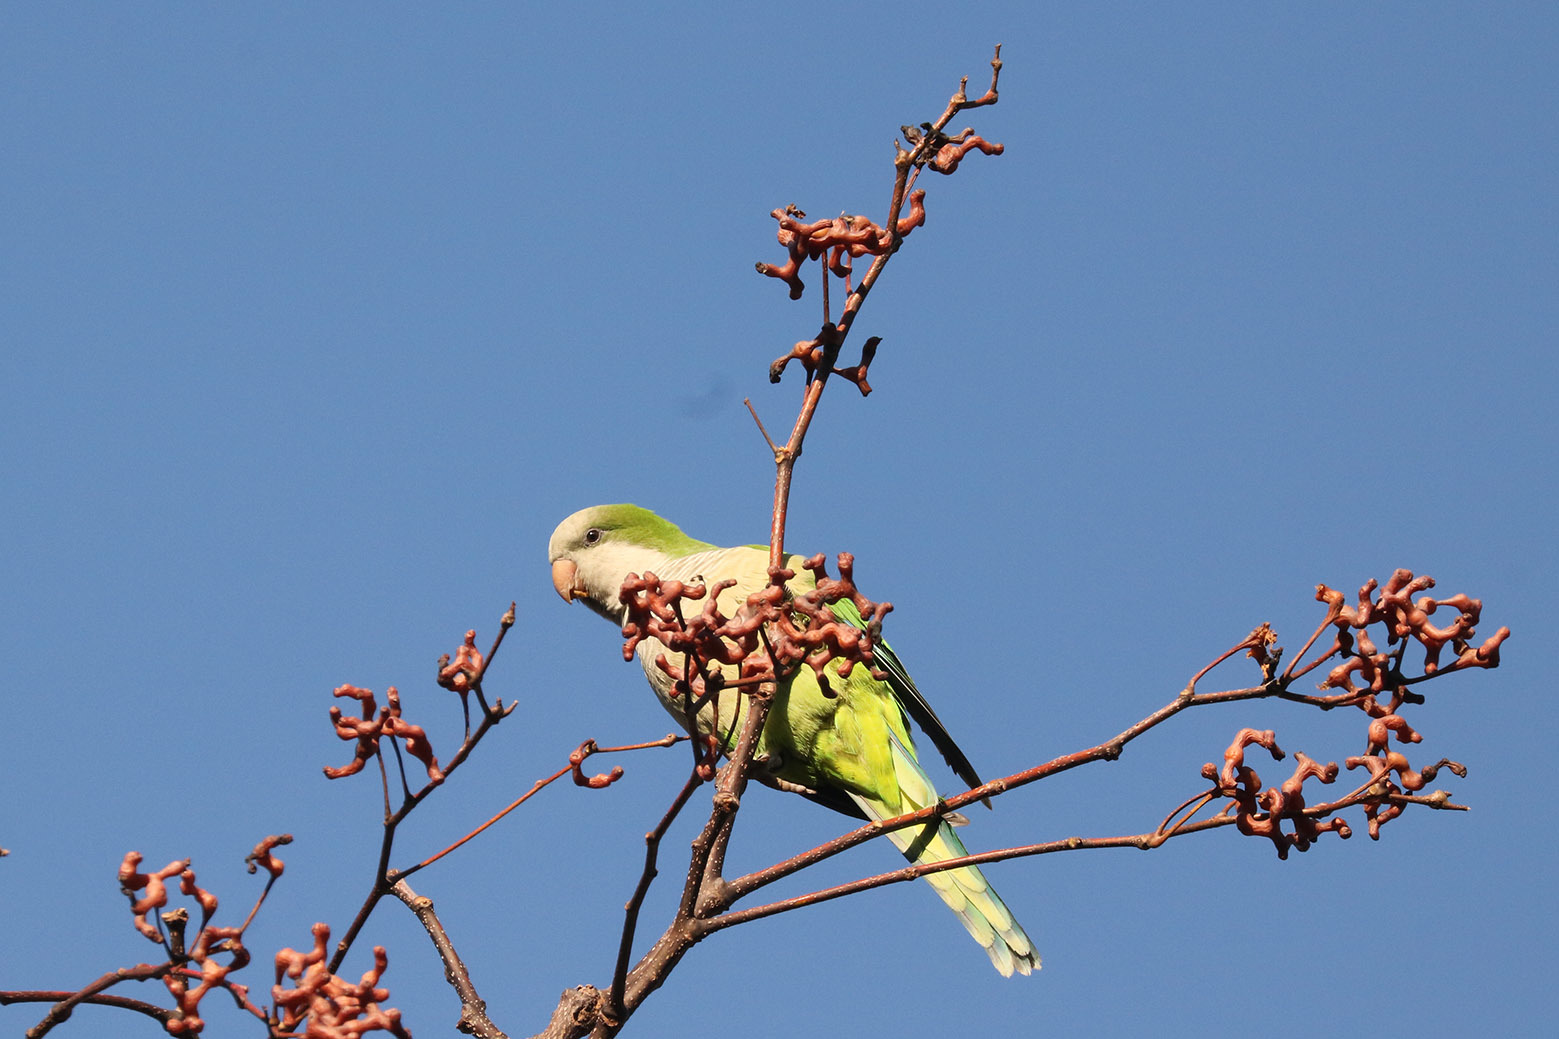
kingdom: Animalia
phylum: Chordata
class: Aves
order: Psittaciformes
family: Psittacidae
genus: Myiopsitta
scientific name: Myiopsitta monachus
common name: Monk parakeet
